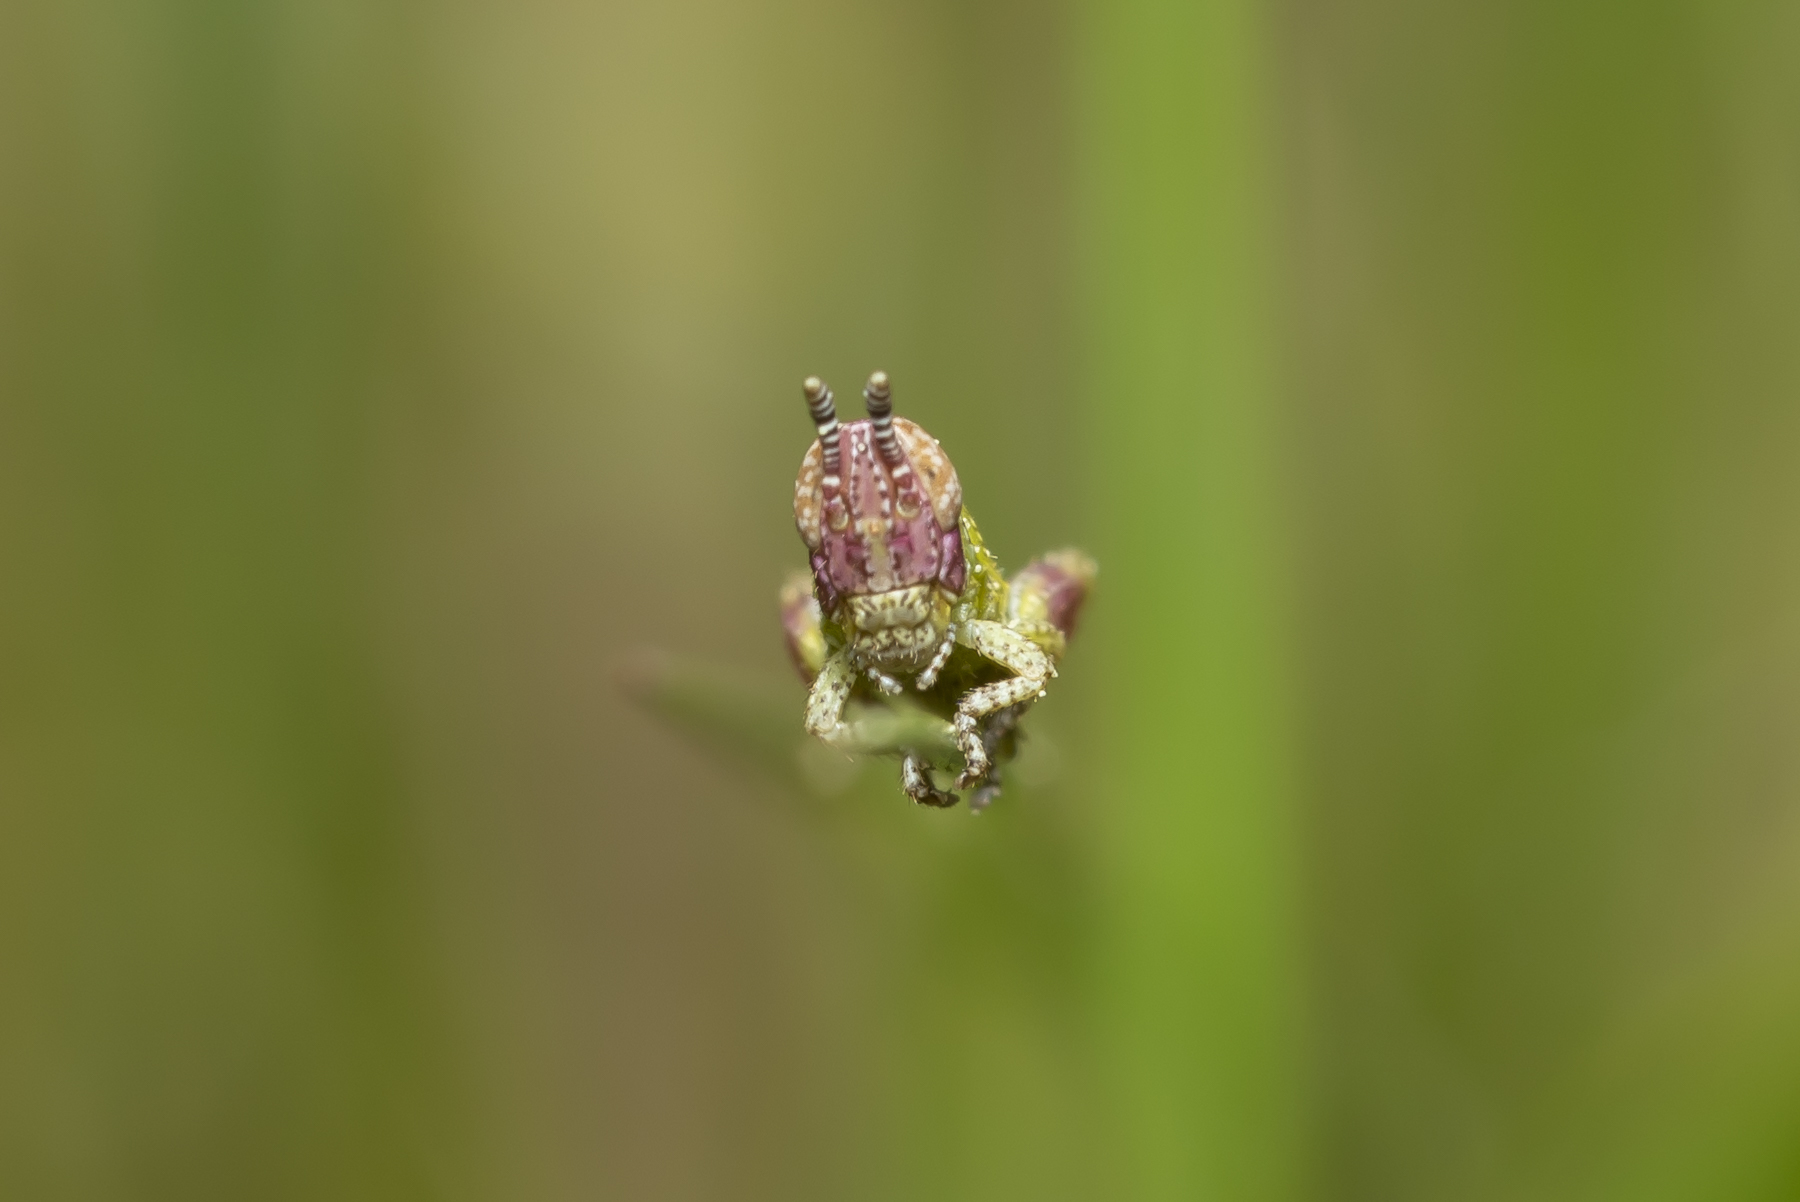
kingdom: Animalia
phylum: Arthropoda
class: Insecta
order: Orthoptera
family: Acrididae
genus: Pezotettix
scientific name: Pezotettix lagoi
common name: Rhodes maquis grasshopper
